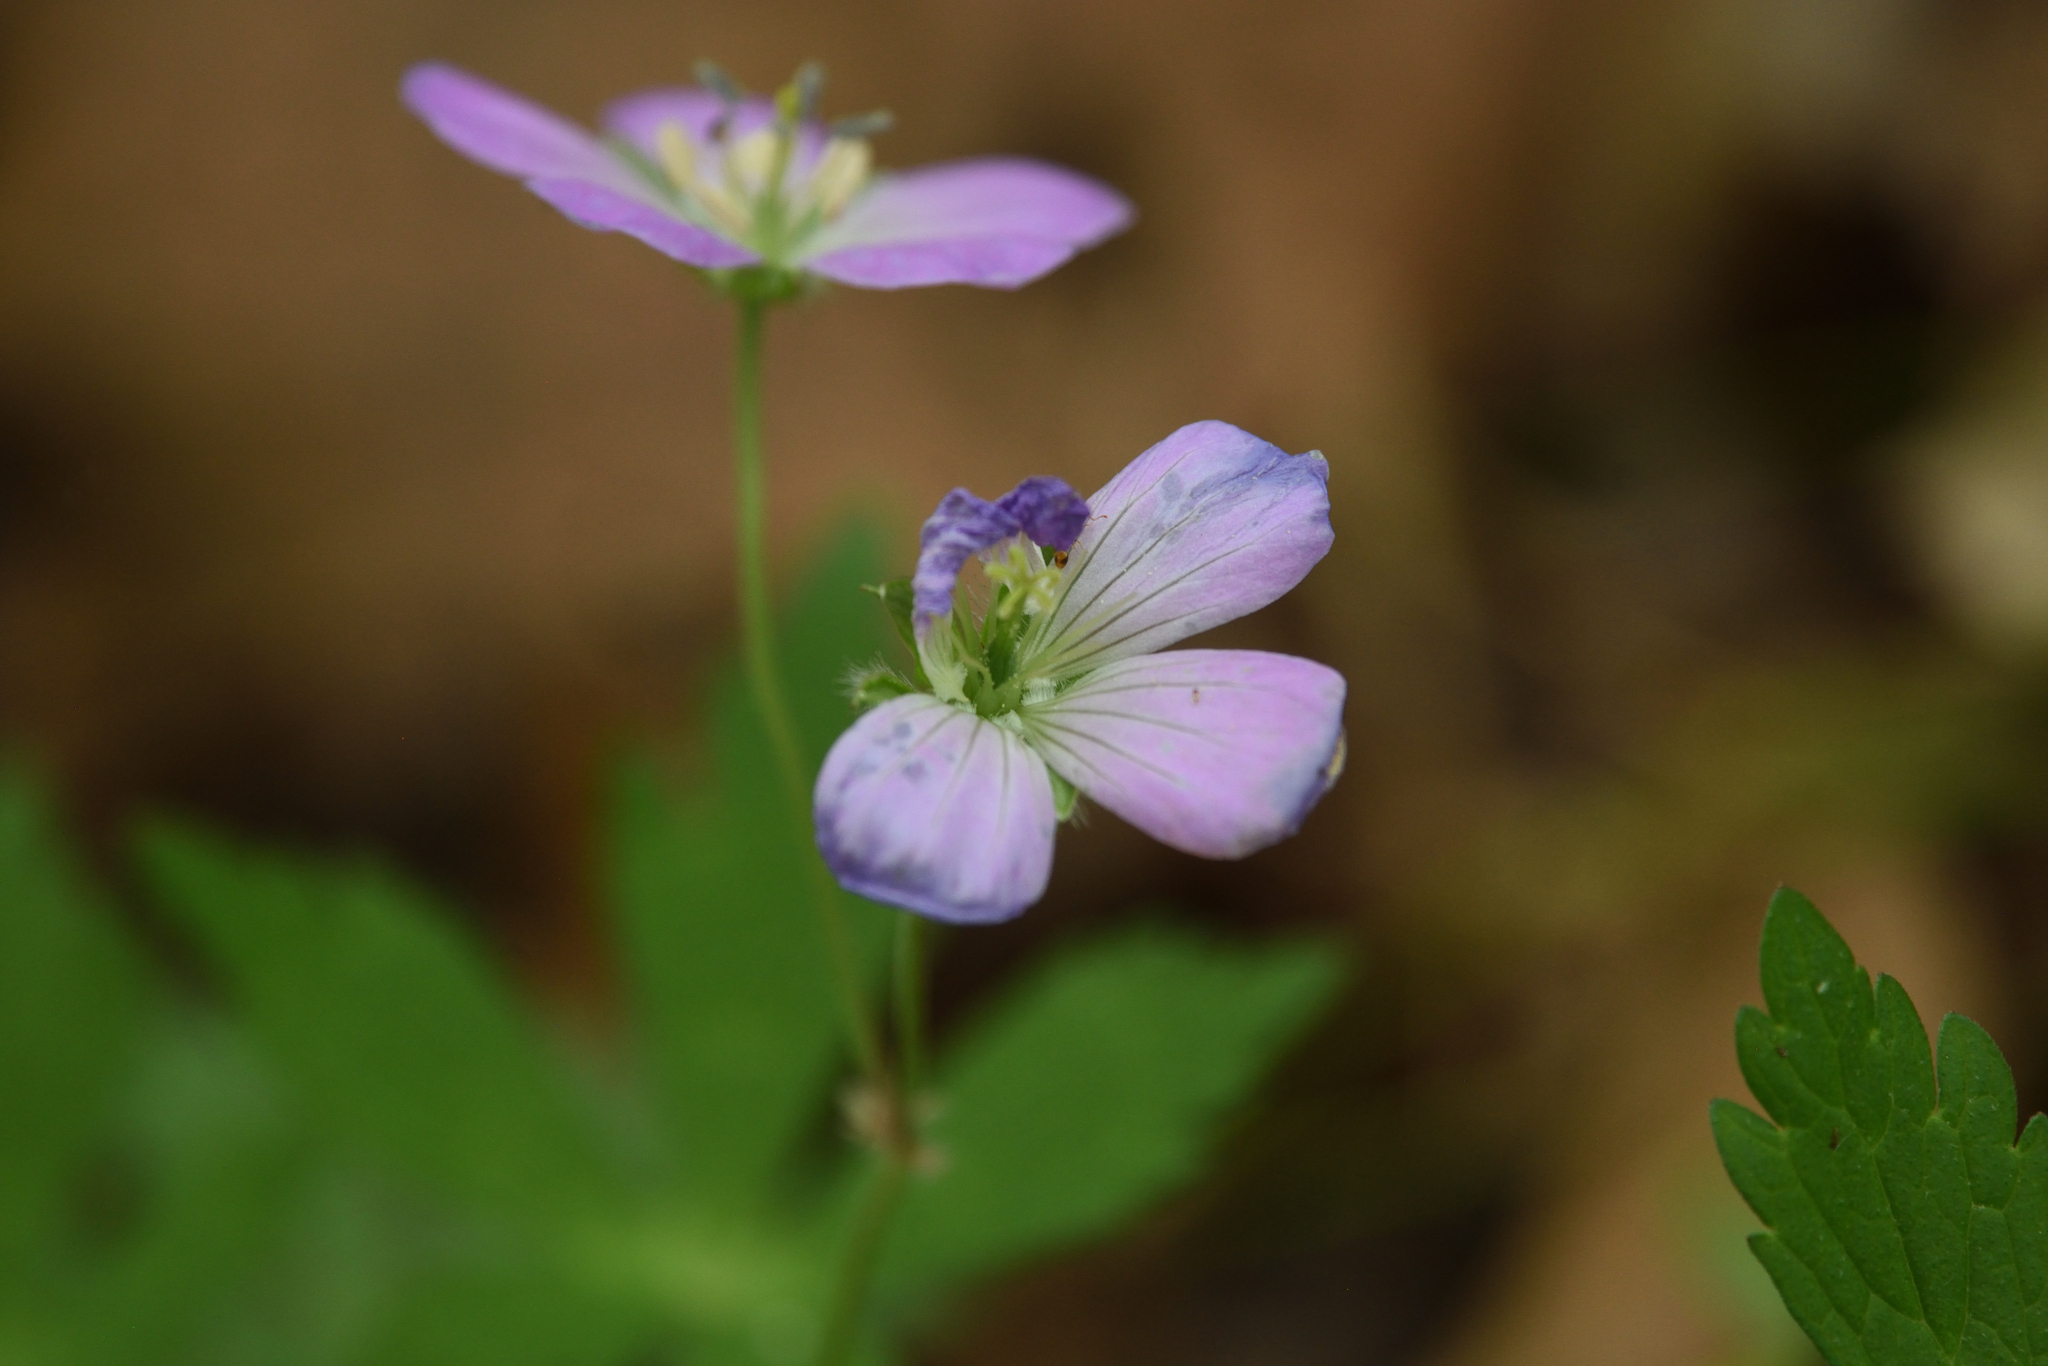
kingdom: Plantae
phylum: Tracheophyta
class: Magnoliopsida
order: Geraniales
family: Geraniaceae
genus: Geranium
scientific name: Geranium maculatum
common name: Spotted geranium
